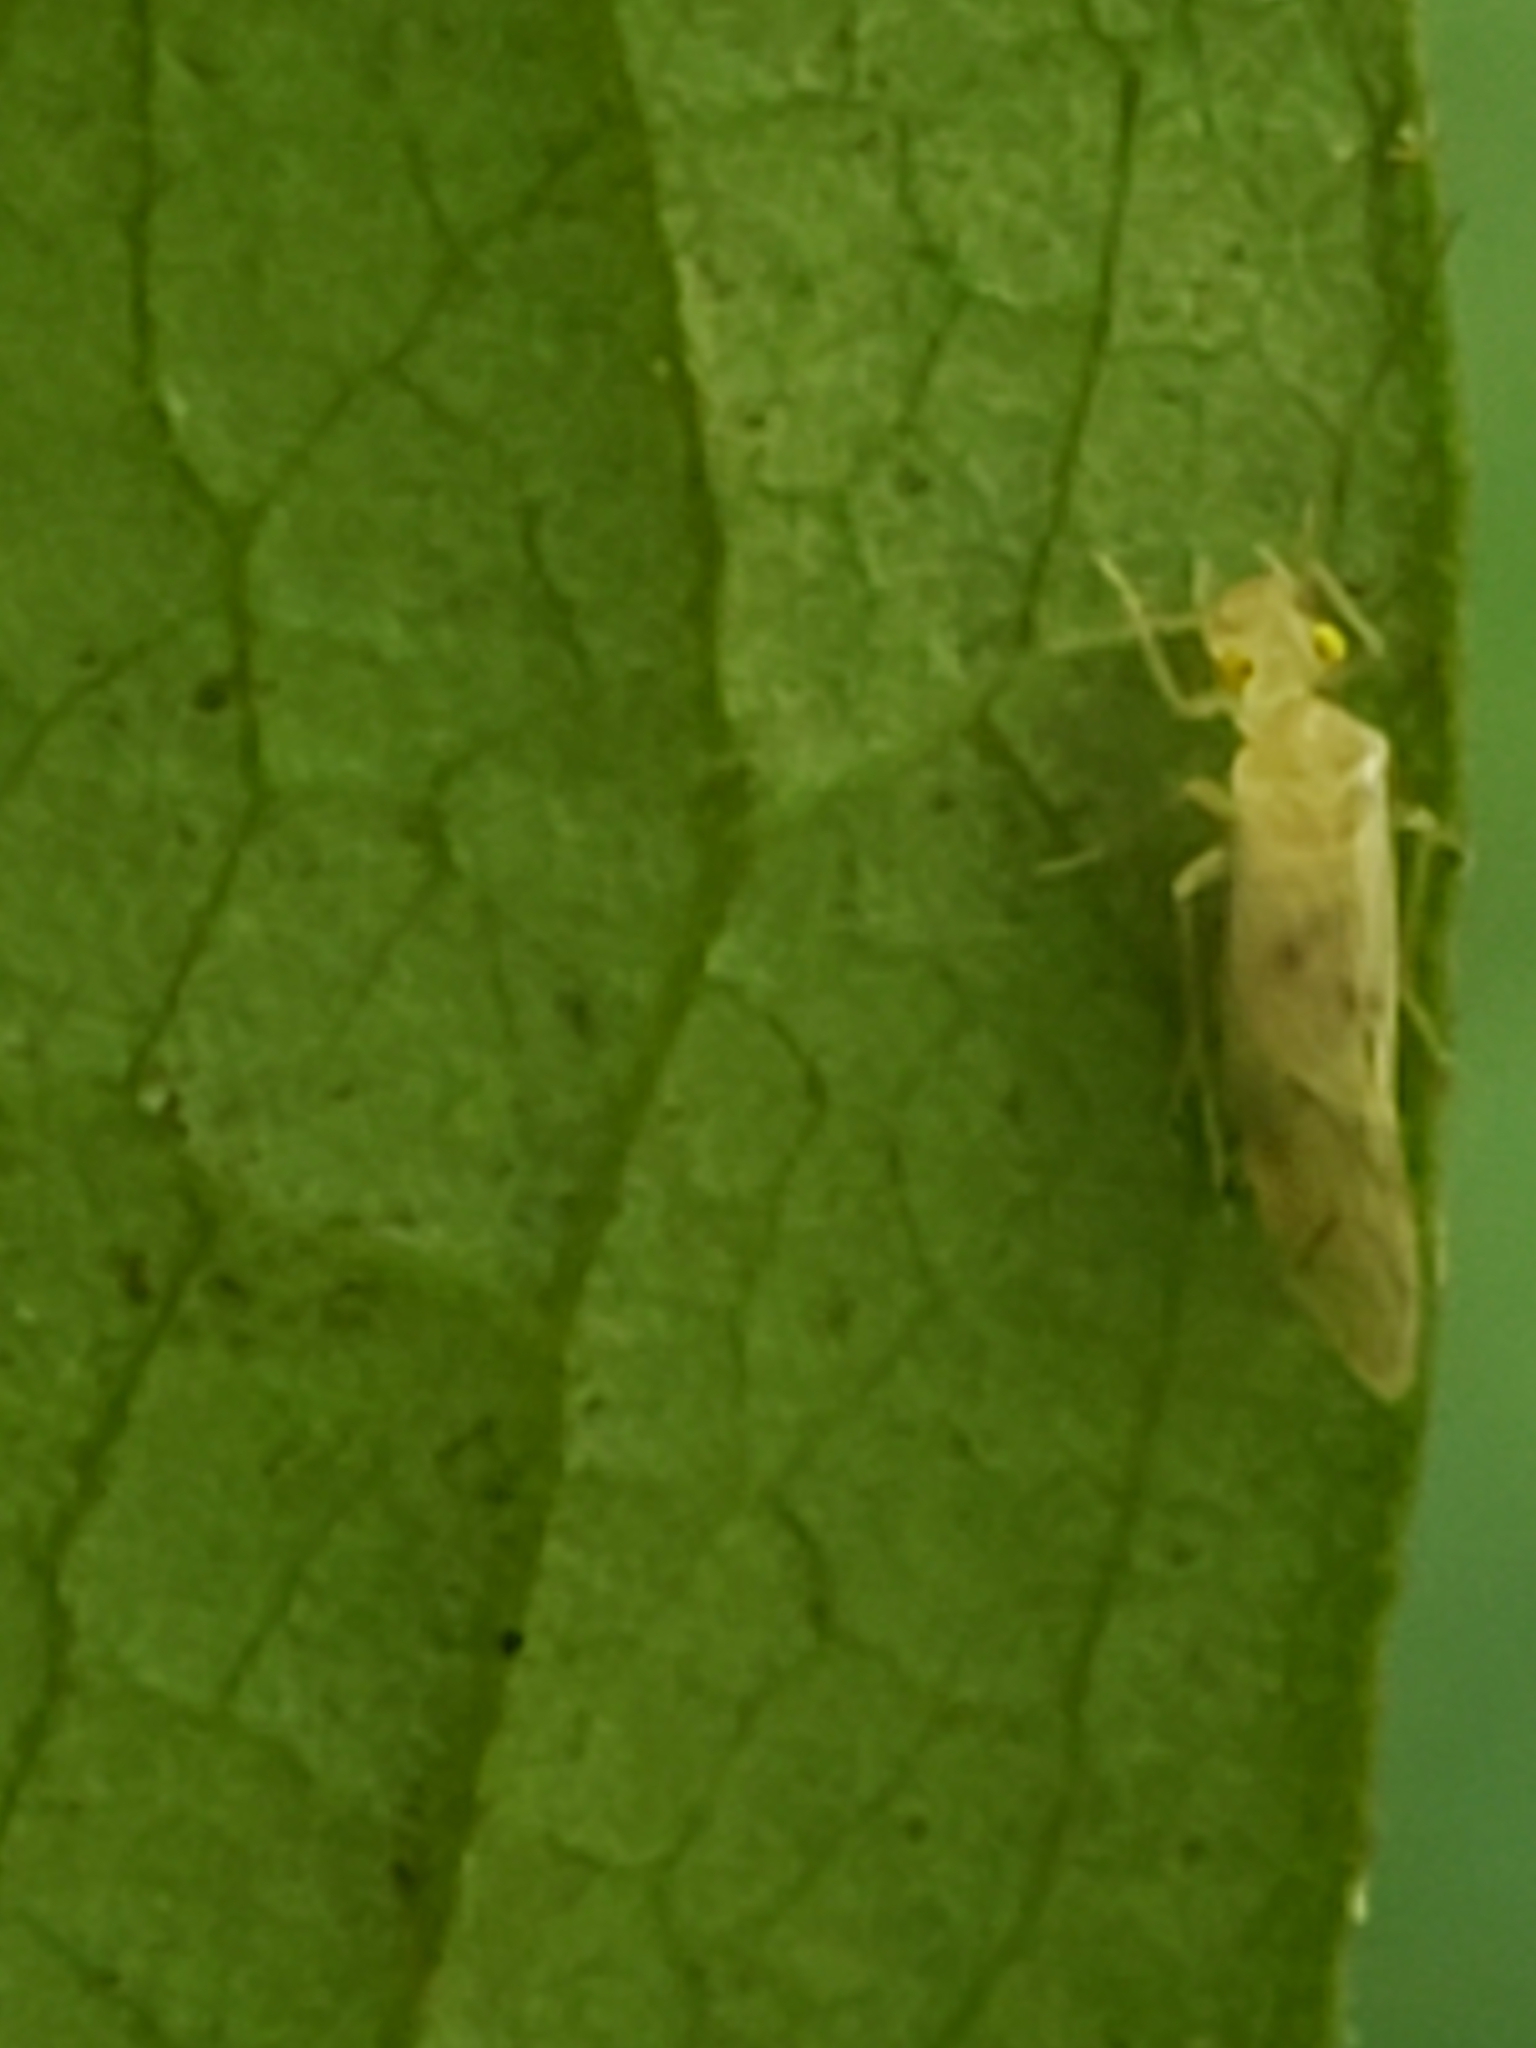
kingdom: Animalia
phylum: Arthropoda
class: Insecta
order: Psocodea
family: Paracaeciliidae
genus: Xanthocaecilius
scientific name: Xanthocaecilius sommermanae
